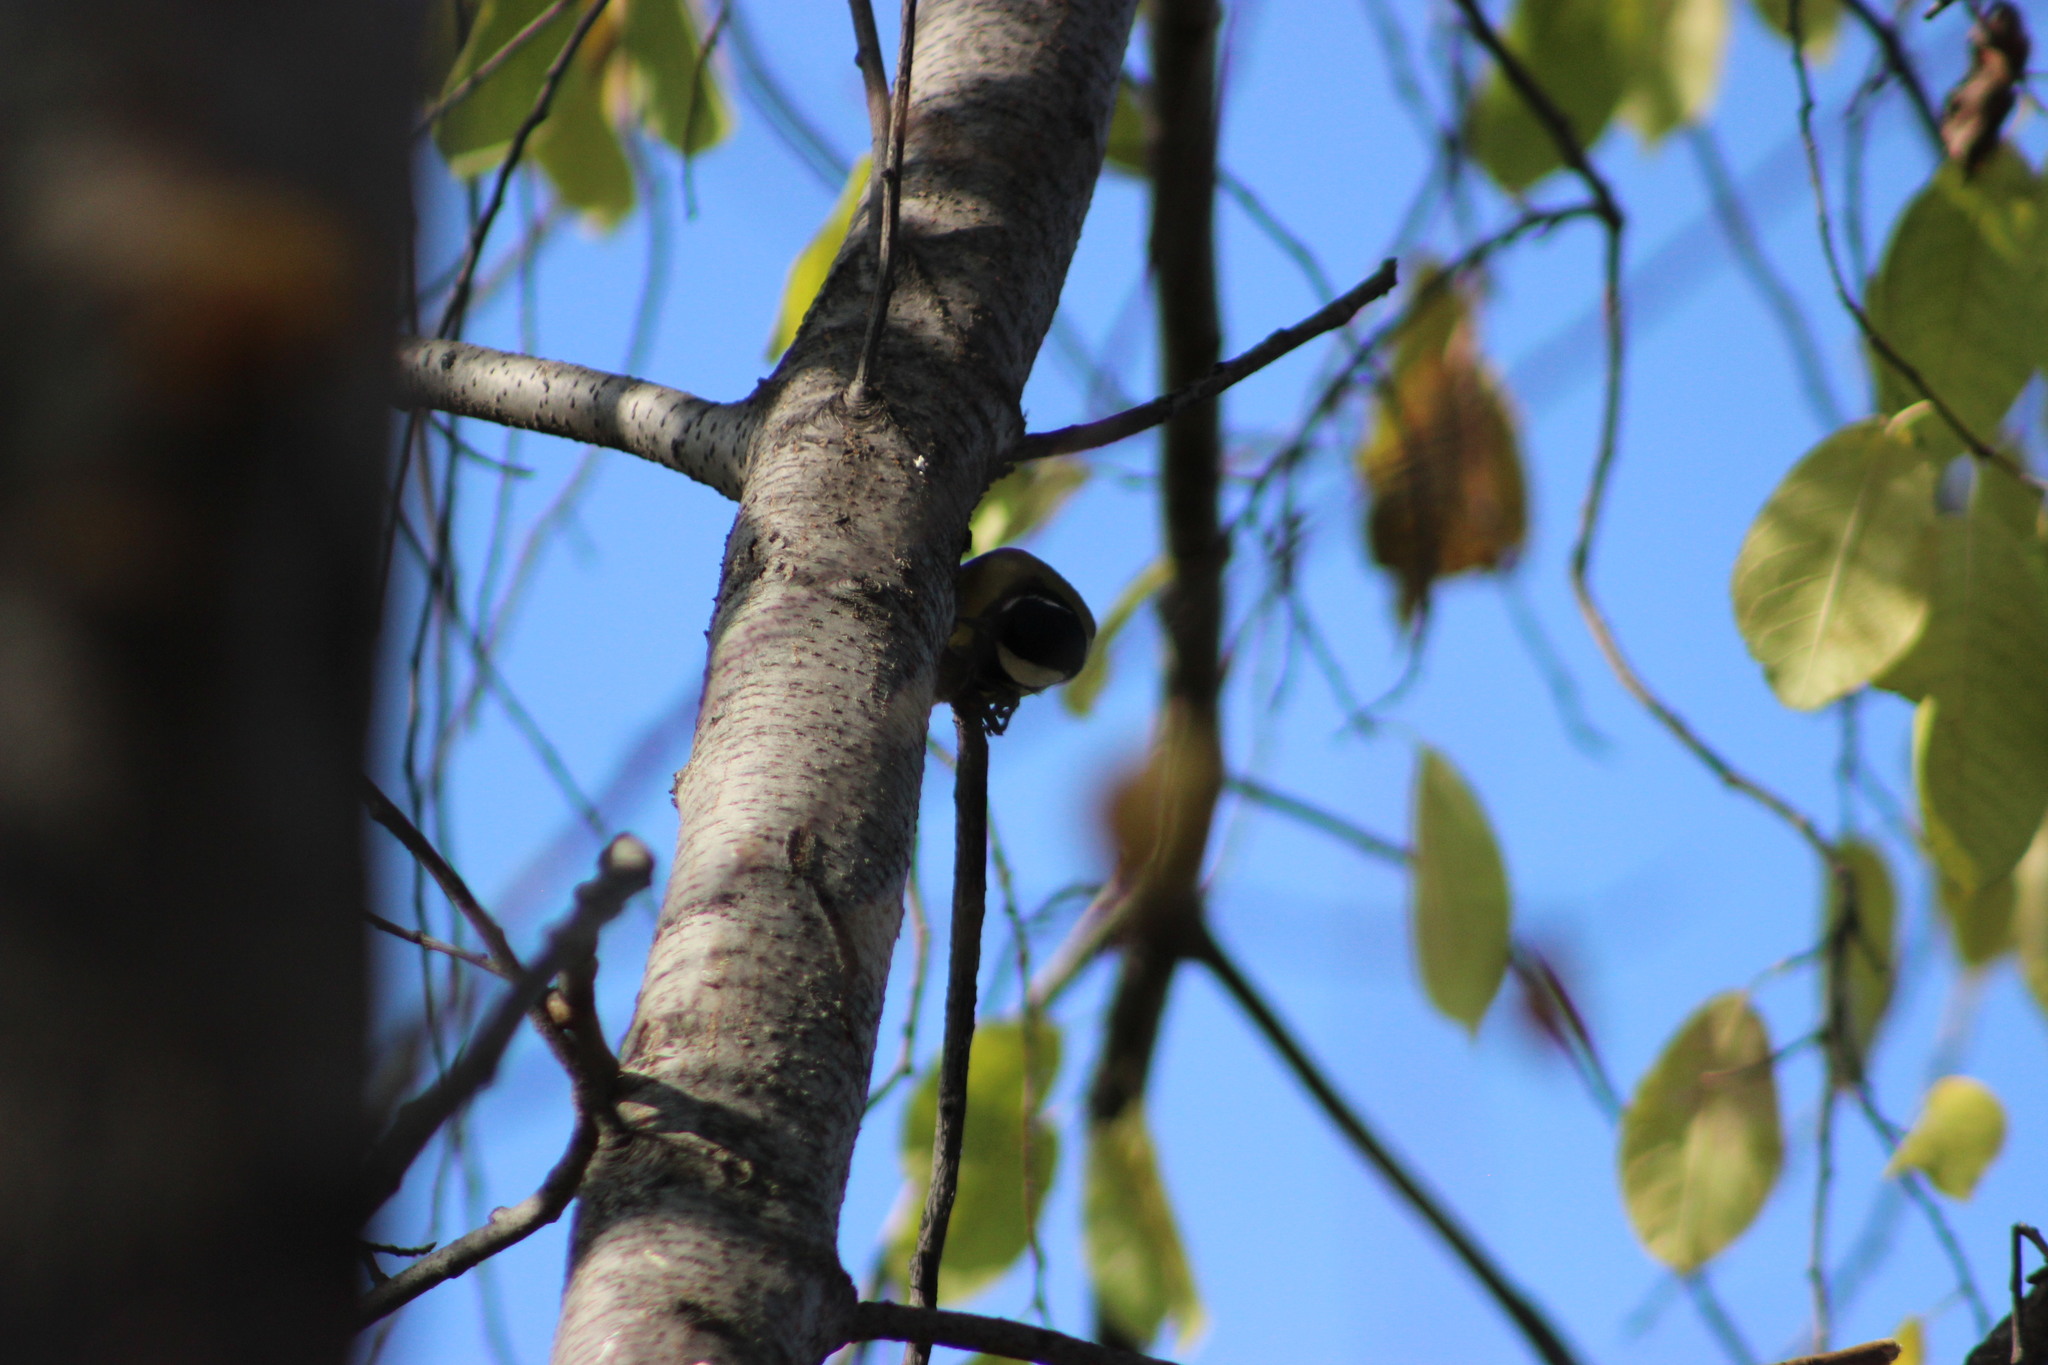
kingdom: Animalia
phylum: Chordata
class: Aves
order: Passeriformes
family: Paridae
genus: Parus
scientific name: Parus major
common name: Great tit
